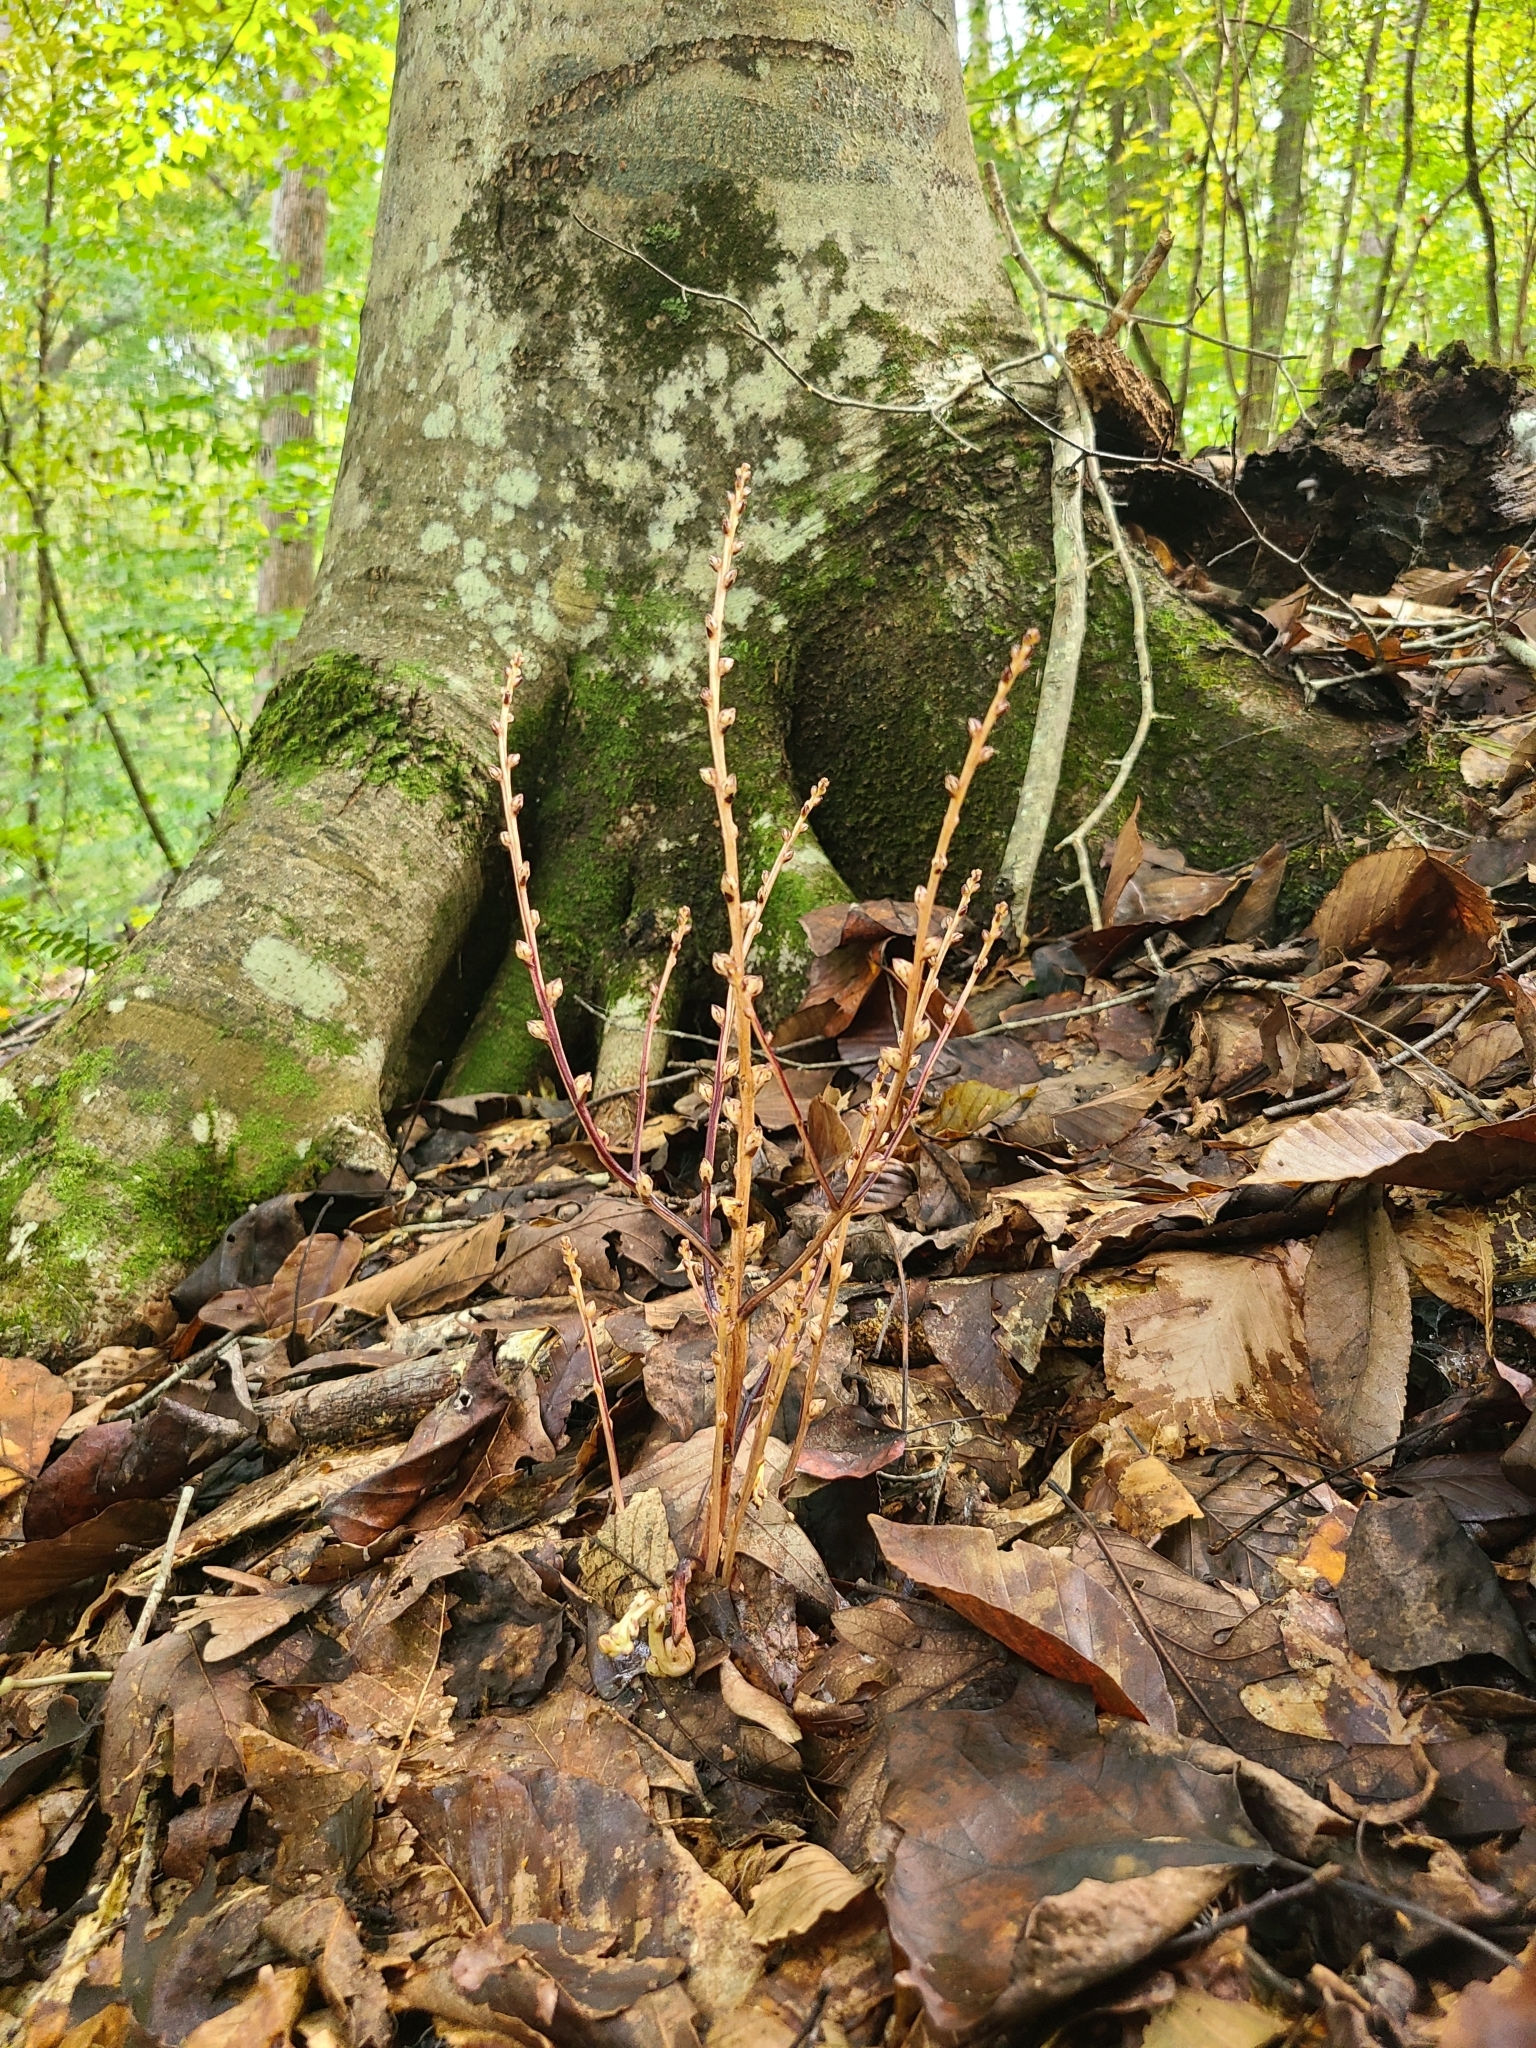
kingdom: Plantae
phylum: Tracheophyta
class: Magnoliopsida
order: Lamiales
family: Orobanchaceae
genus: Epifagus
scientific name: Epifagus virginiana
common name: Beechdrops
